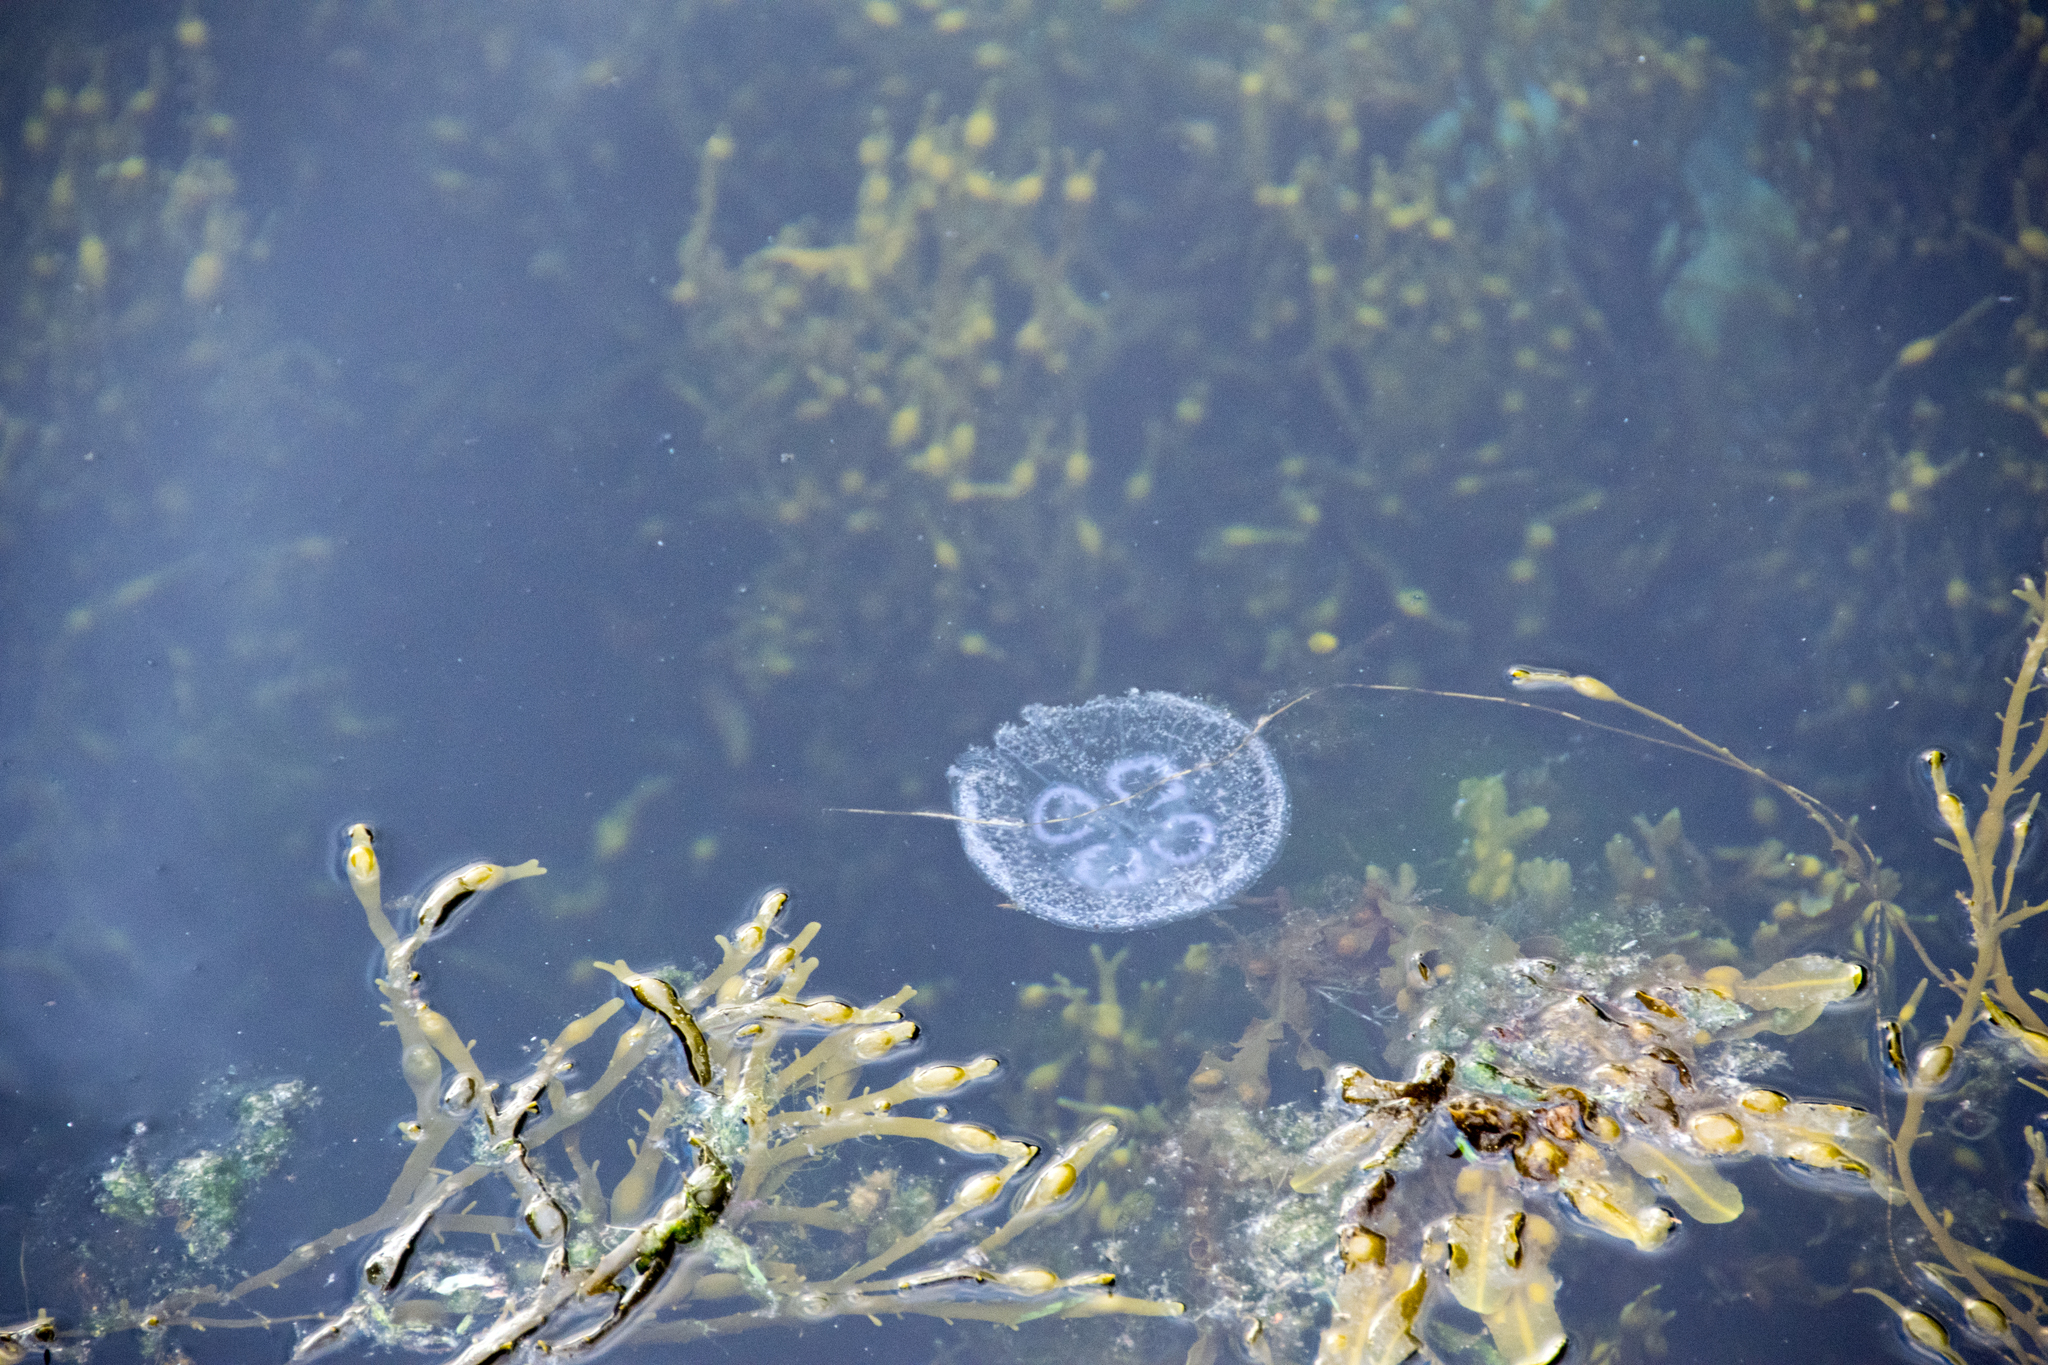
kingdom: Animalia
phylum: Cnidaria
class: Scyphozoa
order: Semaeostomeae
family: Ulmaridae
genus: Aurelia
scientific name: Aurelia aurita
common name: Moon jellyfish
